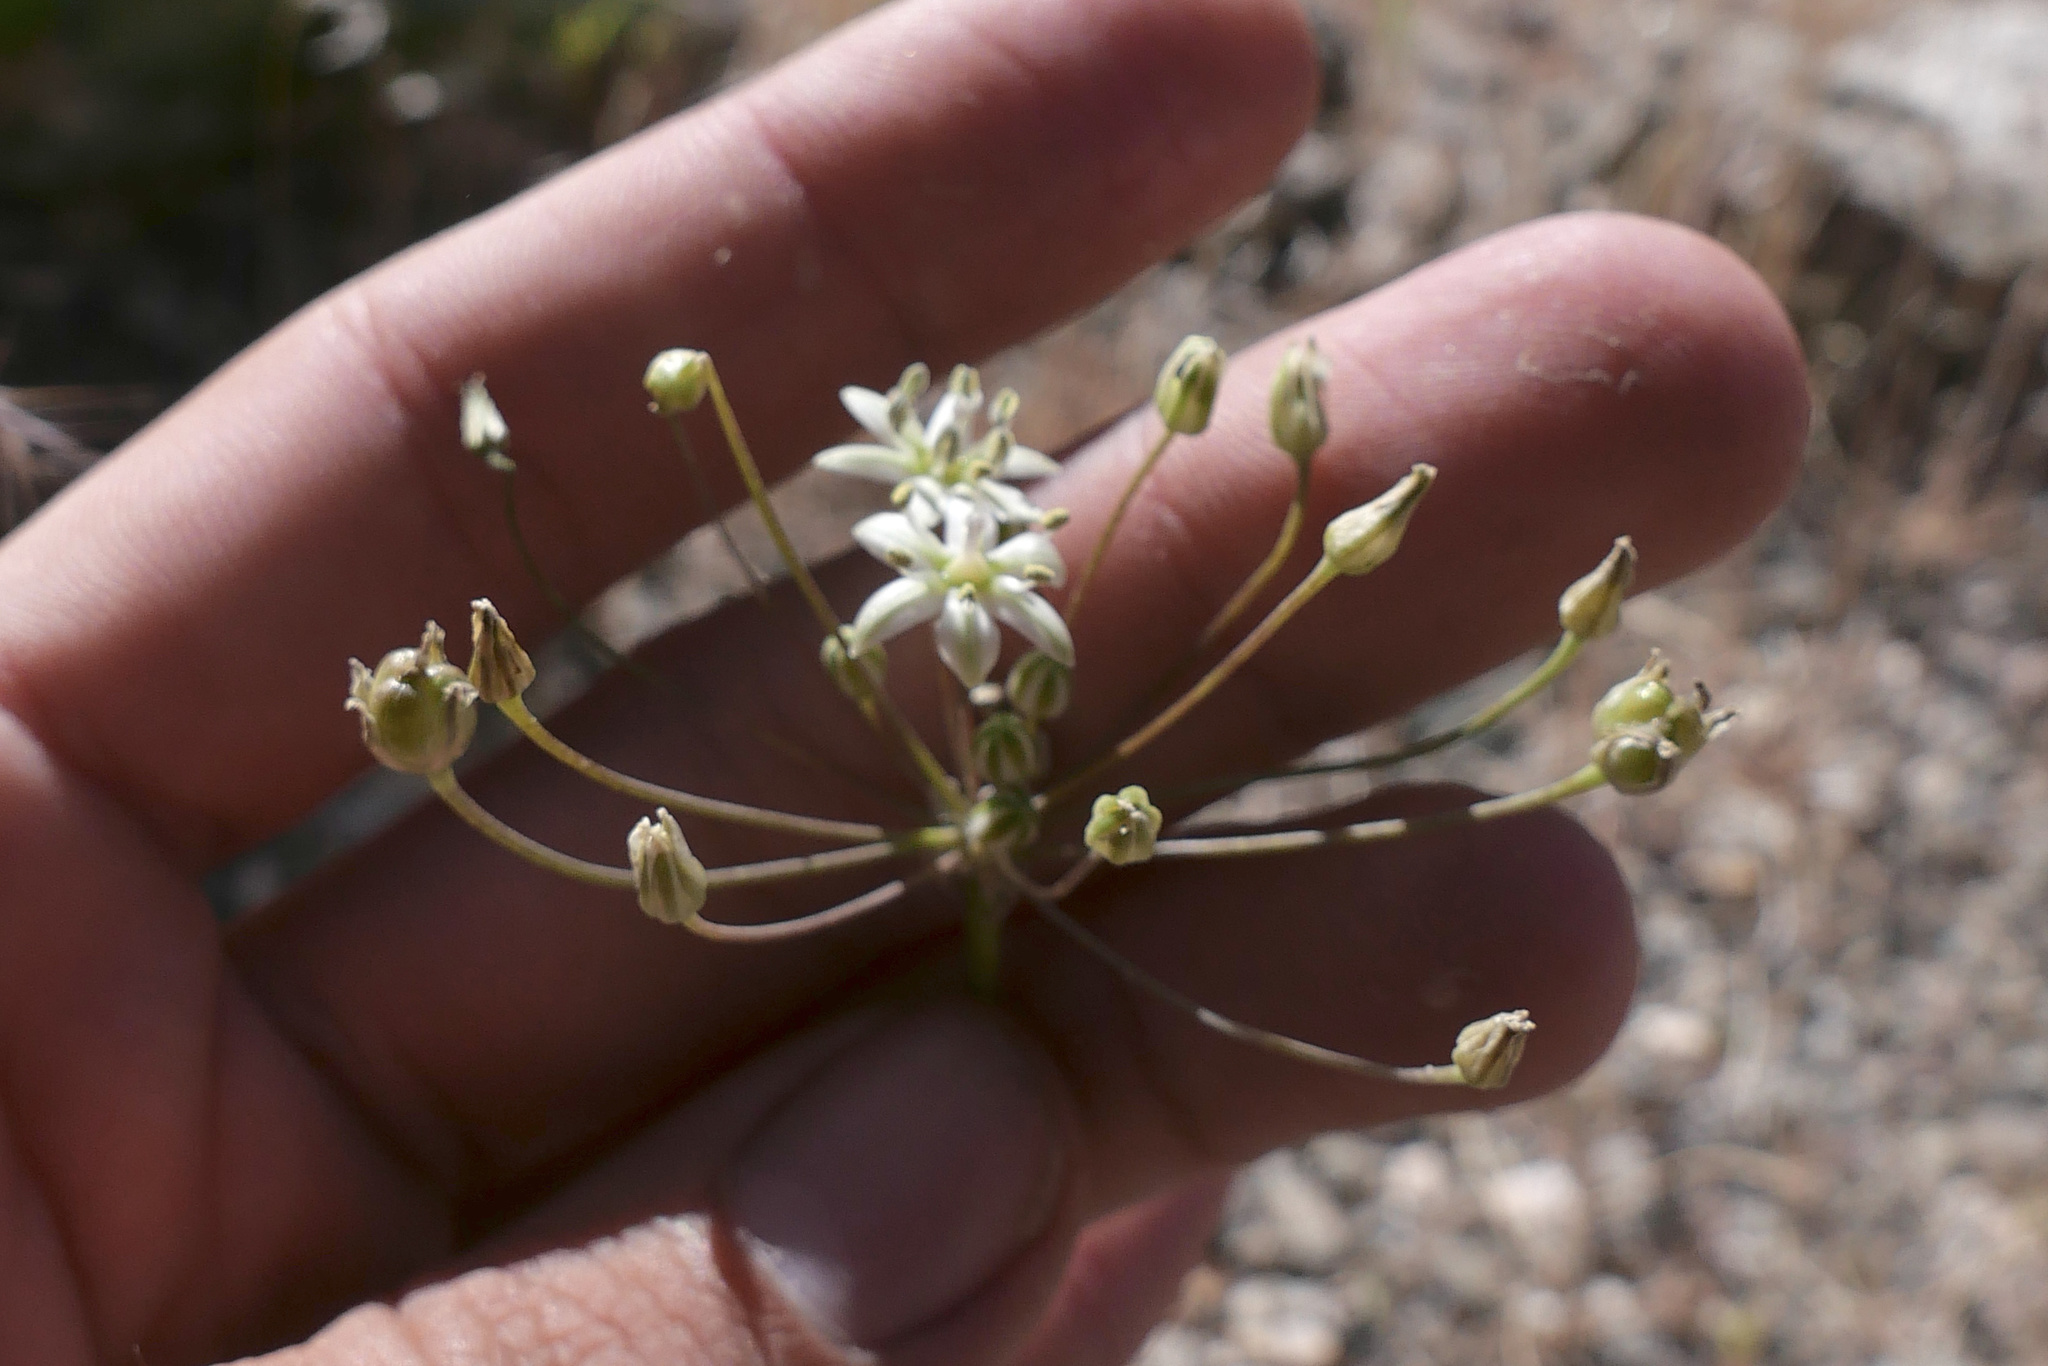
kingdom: Plantae
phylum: Tracheophyta
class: Liliopsida
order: Asparagales
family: Asparagaceae
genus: Muilla
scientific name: Muilla maritima
